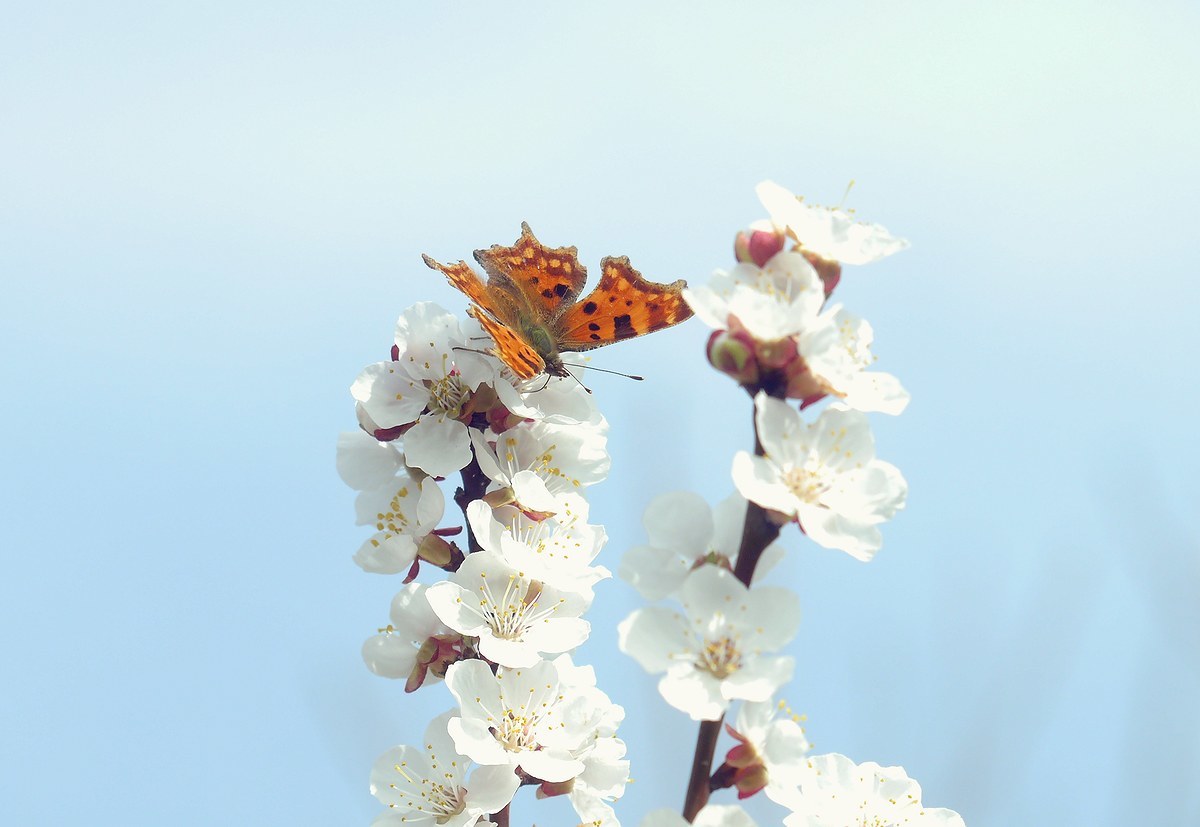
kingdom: Animalia
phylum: Arthropoda
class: Insecta
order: Lepidoptera
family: Nymphalidae
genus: Polygonia
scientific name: Polygonia c-album
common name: Comma
